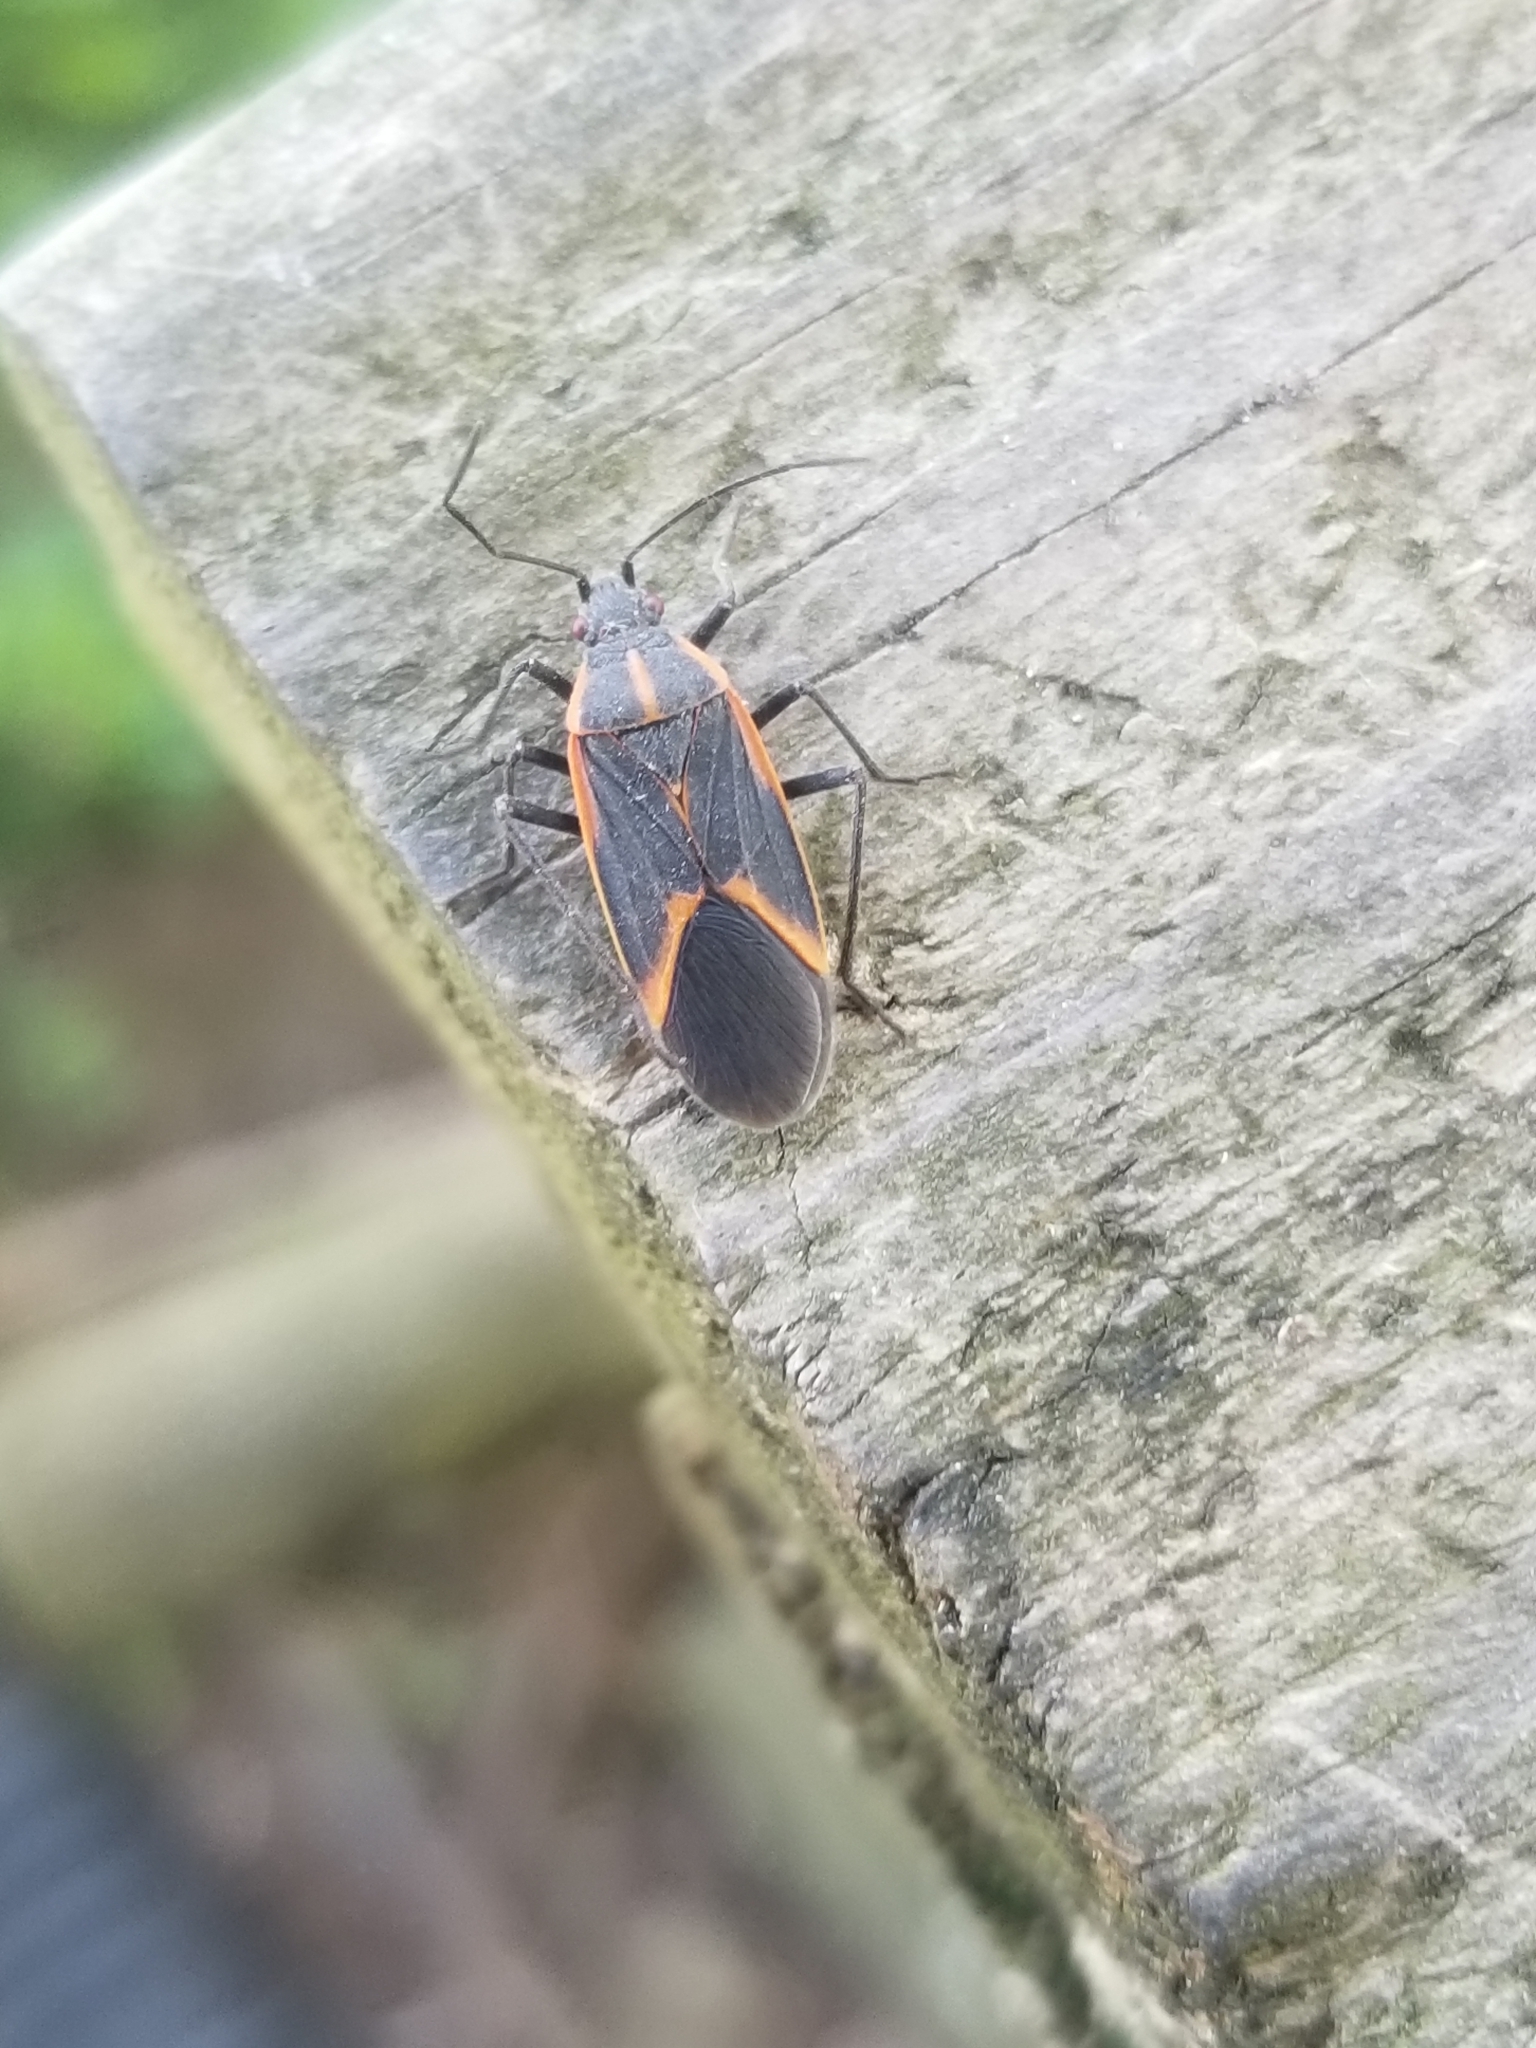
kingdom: Animalia
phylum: Arthropoda
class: Insecta
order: Hemiptera
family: Rhopalidae
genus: Boisea
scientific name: Boisea trivittata
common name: Boxelder bug
